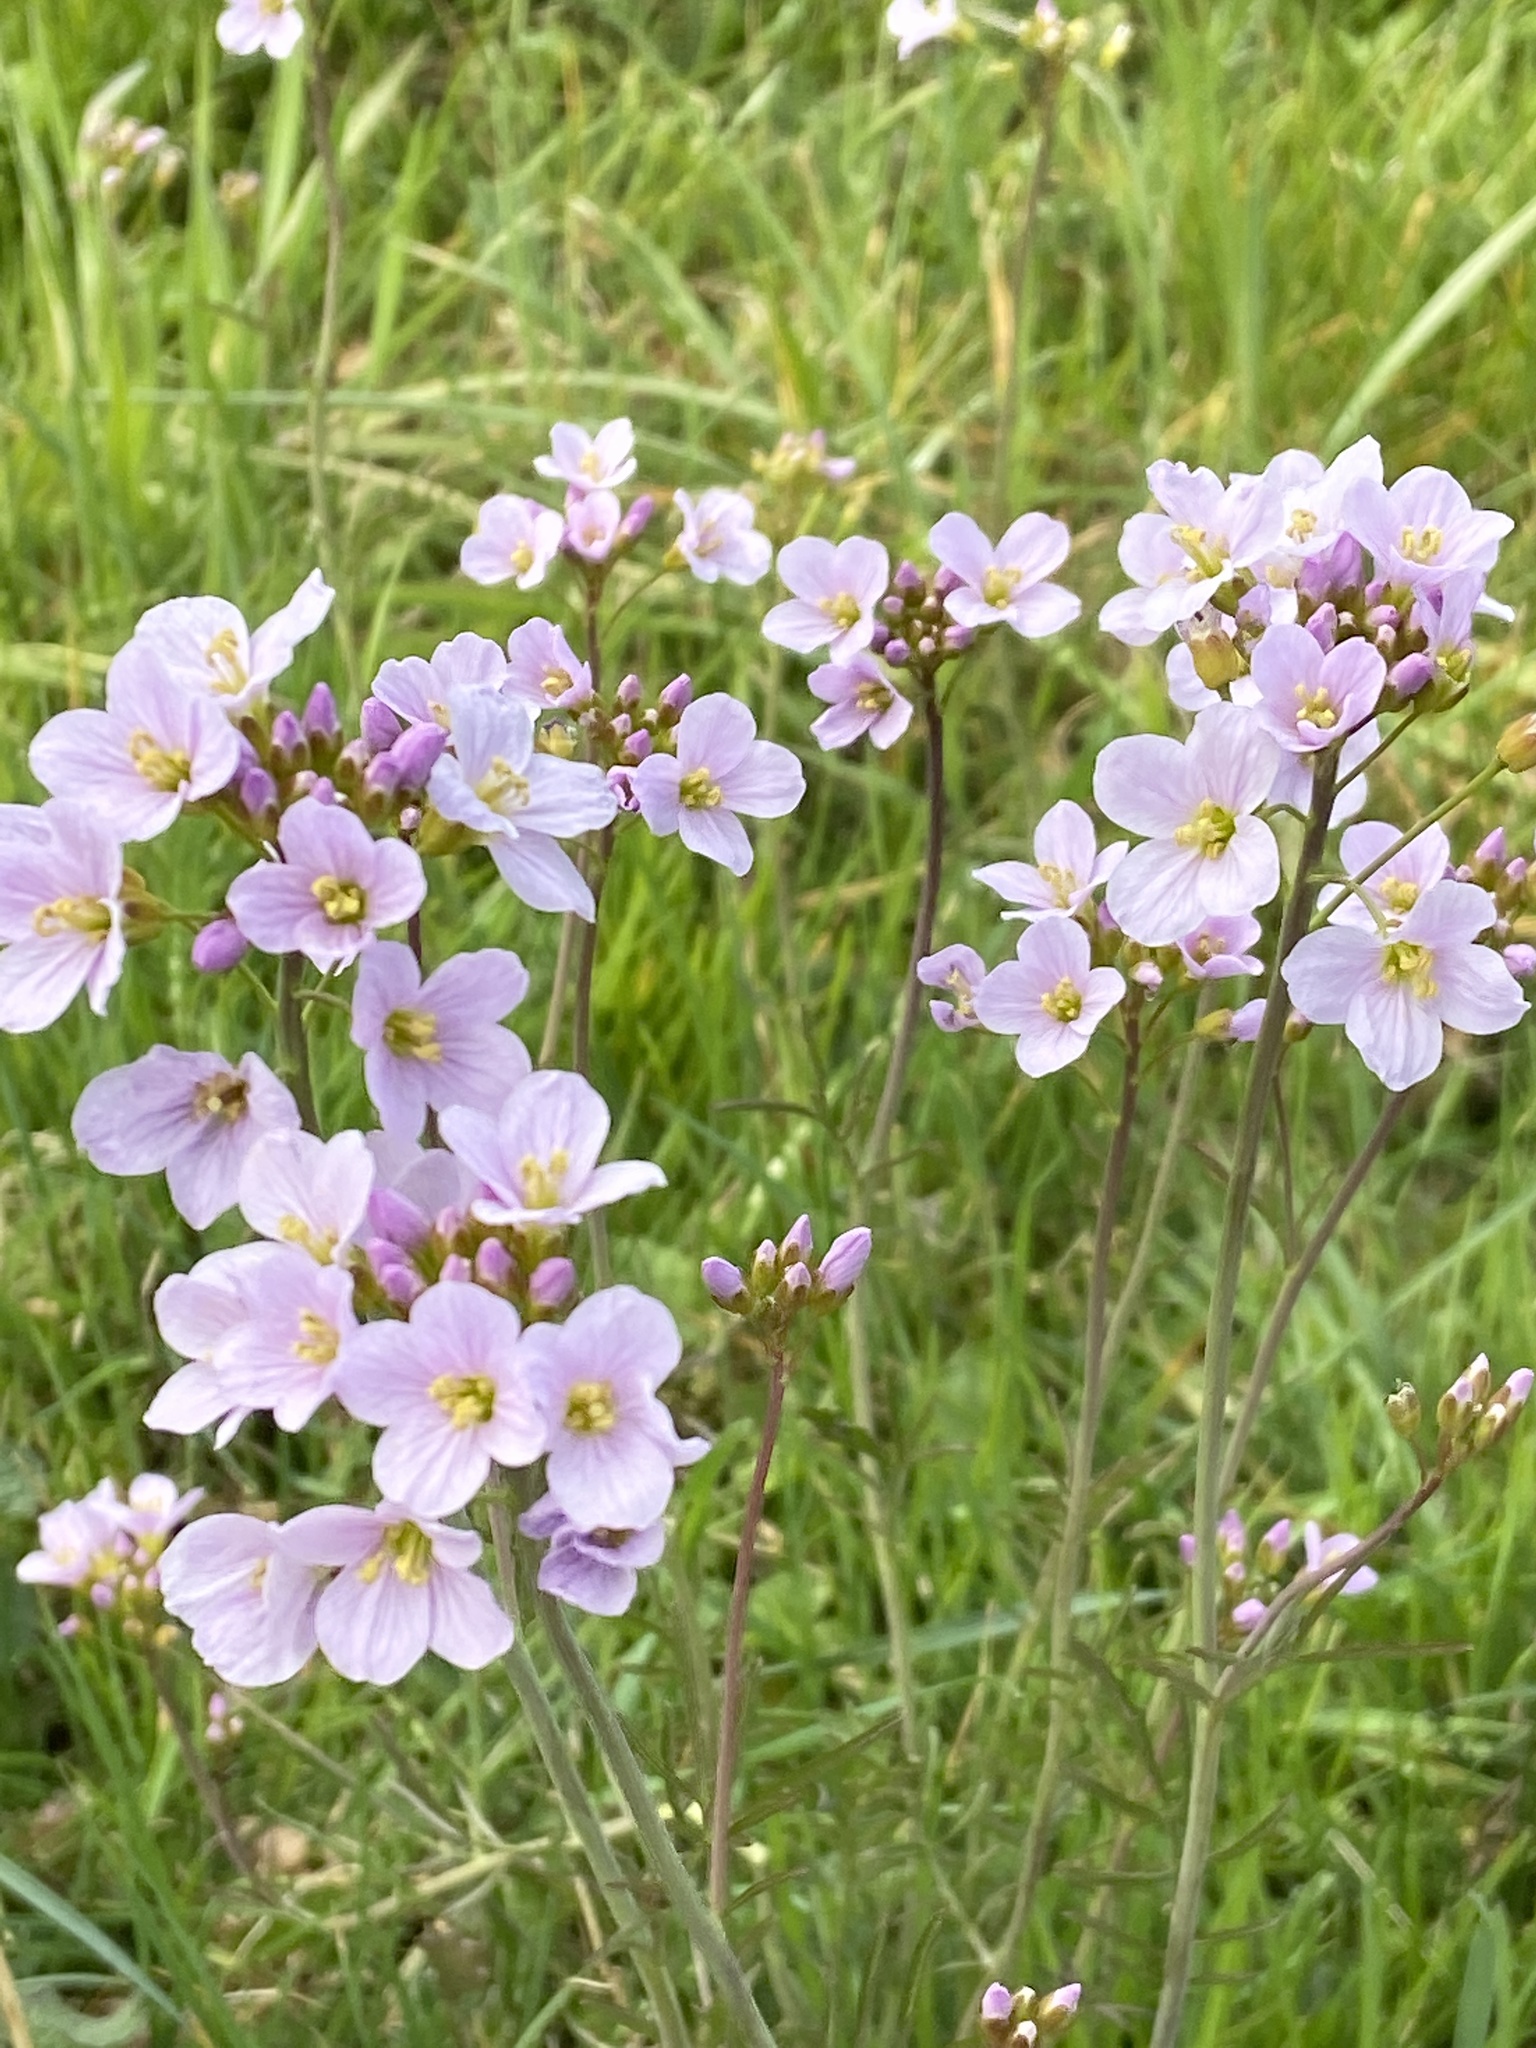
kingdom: Plantae
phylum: Tracheophyta
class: Magnoliopsida
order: Brassicales
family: Brassicaceae
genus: Cardamine
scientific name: Cardamine pratensis
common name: Cuckoo flower
